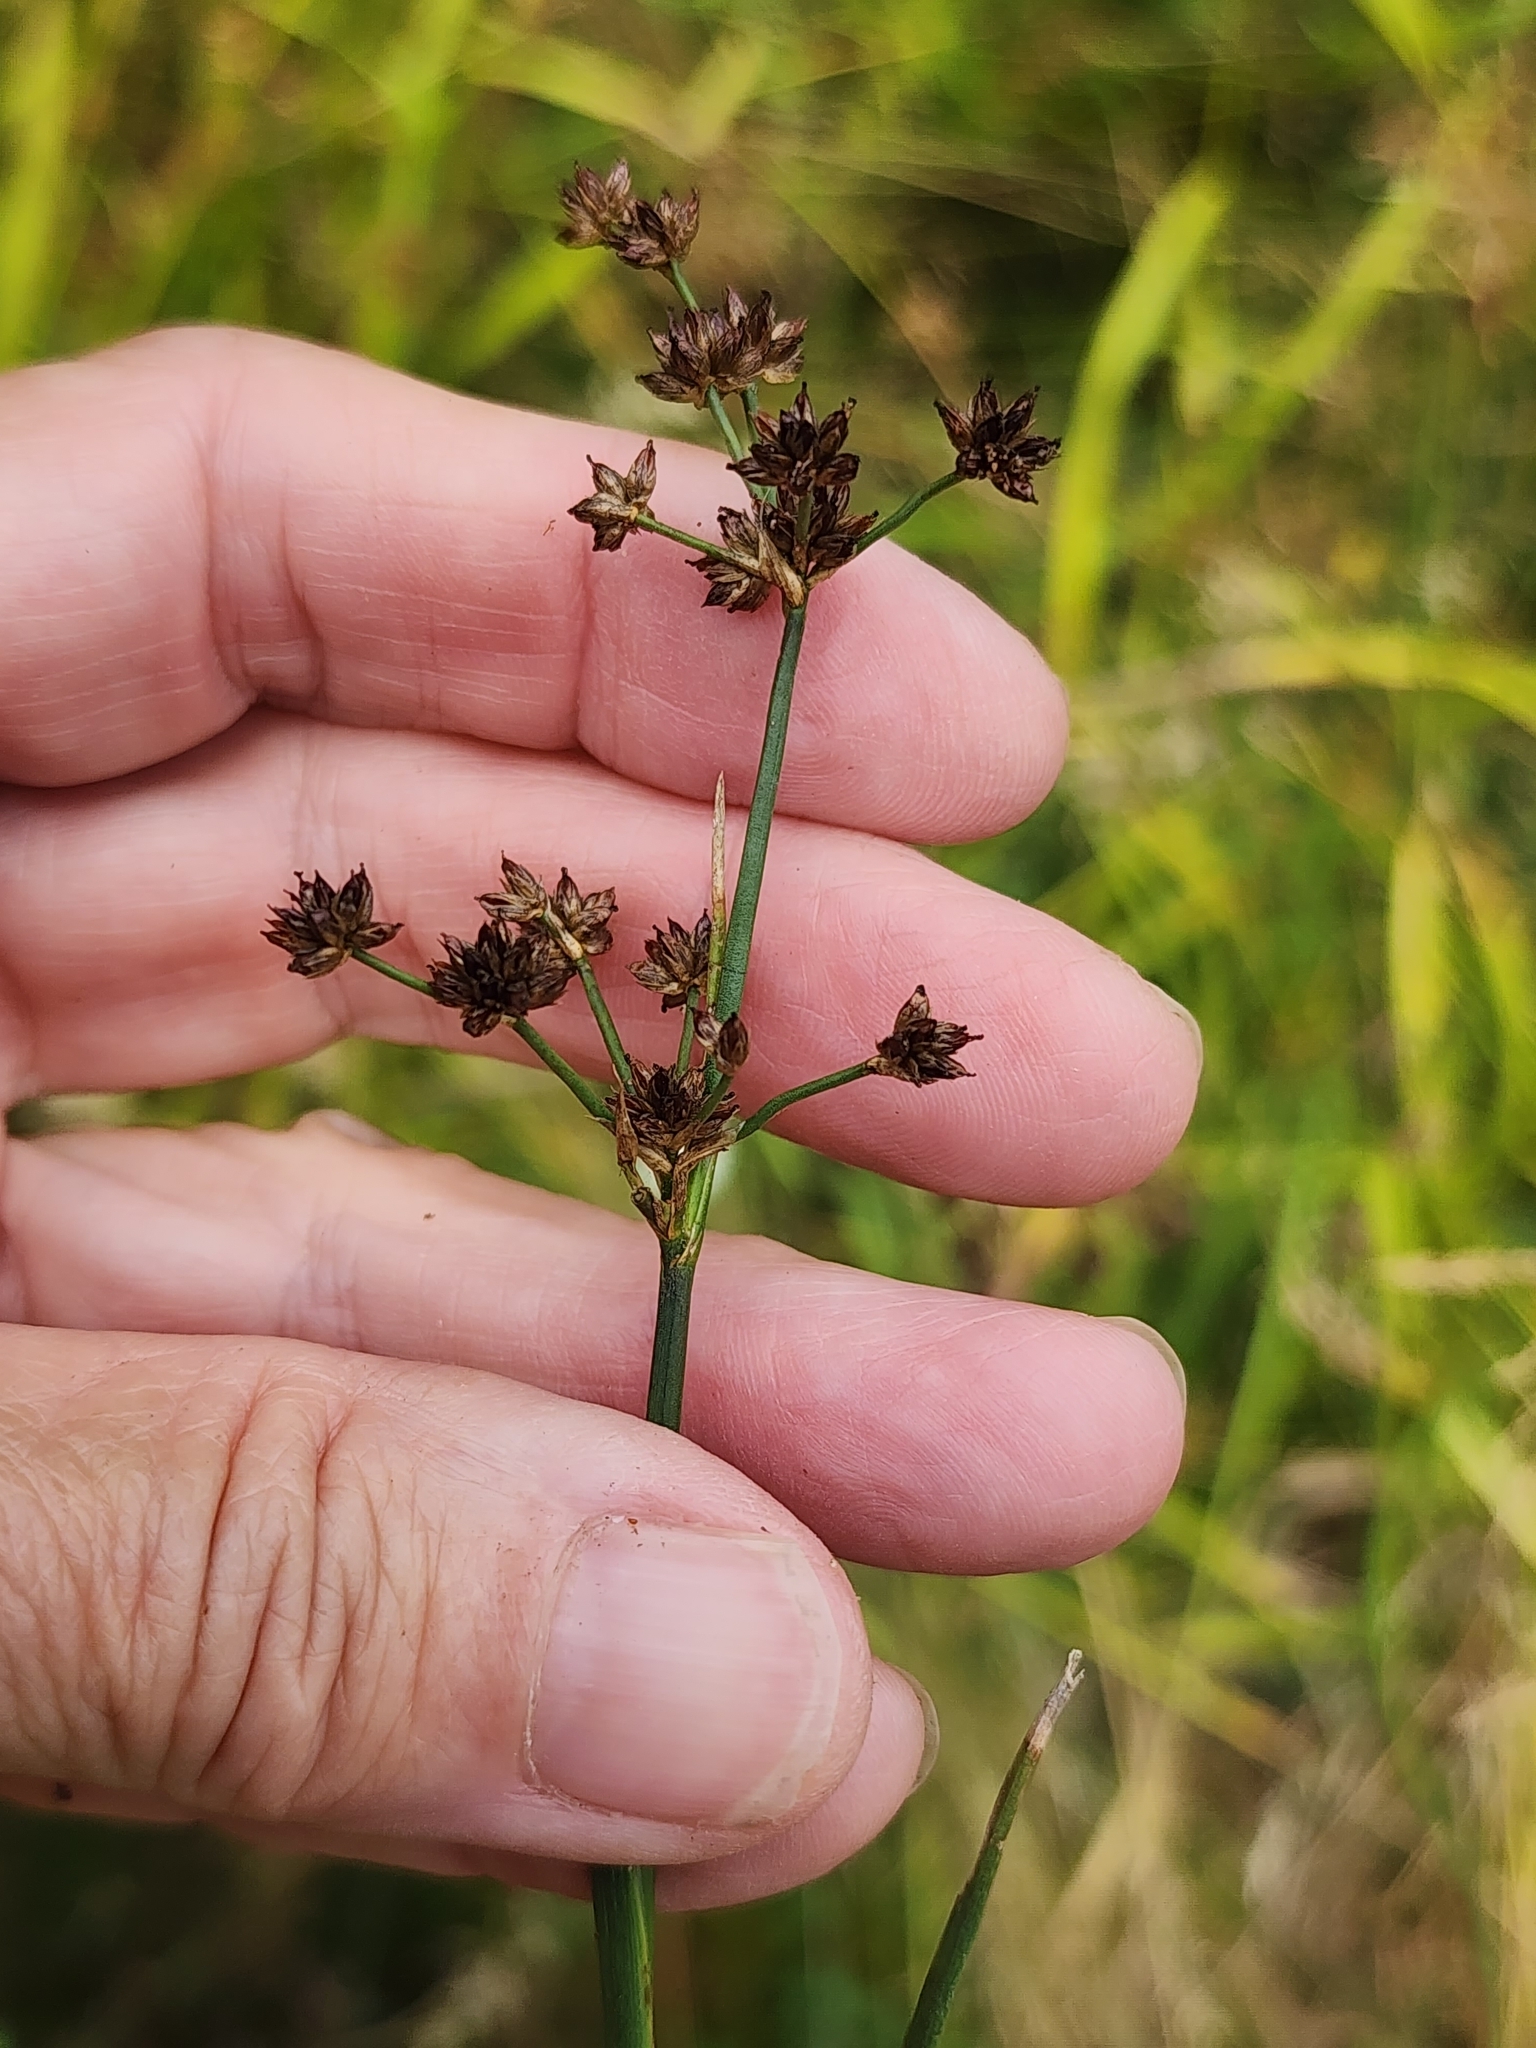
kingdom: Plantae
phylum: Tracheophyta
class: Liliopsida
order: Poales
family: Juncaceae
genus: Juncus
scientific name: Juncus articulatus
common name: Jointed rush
